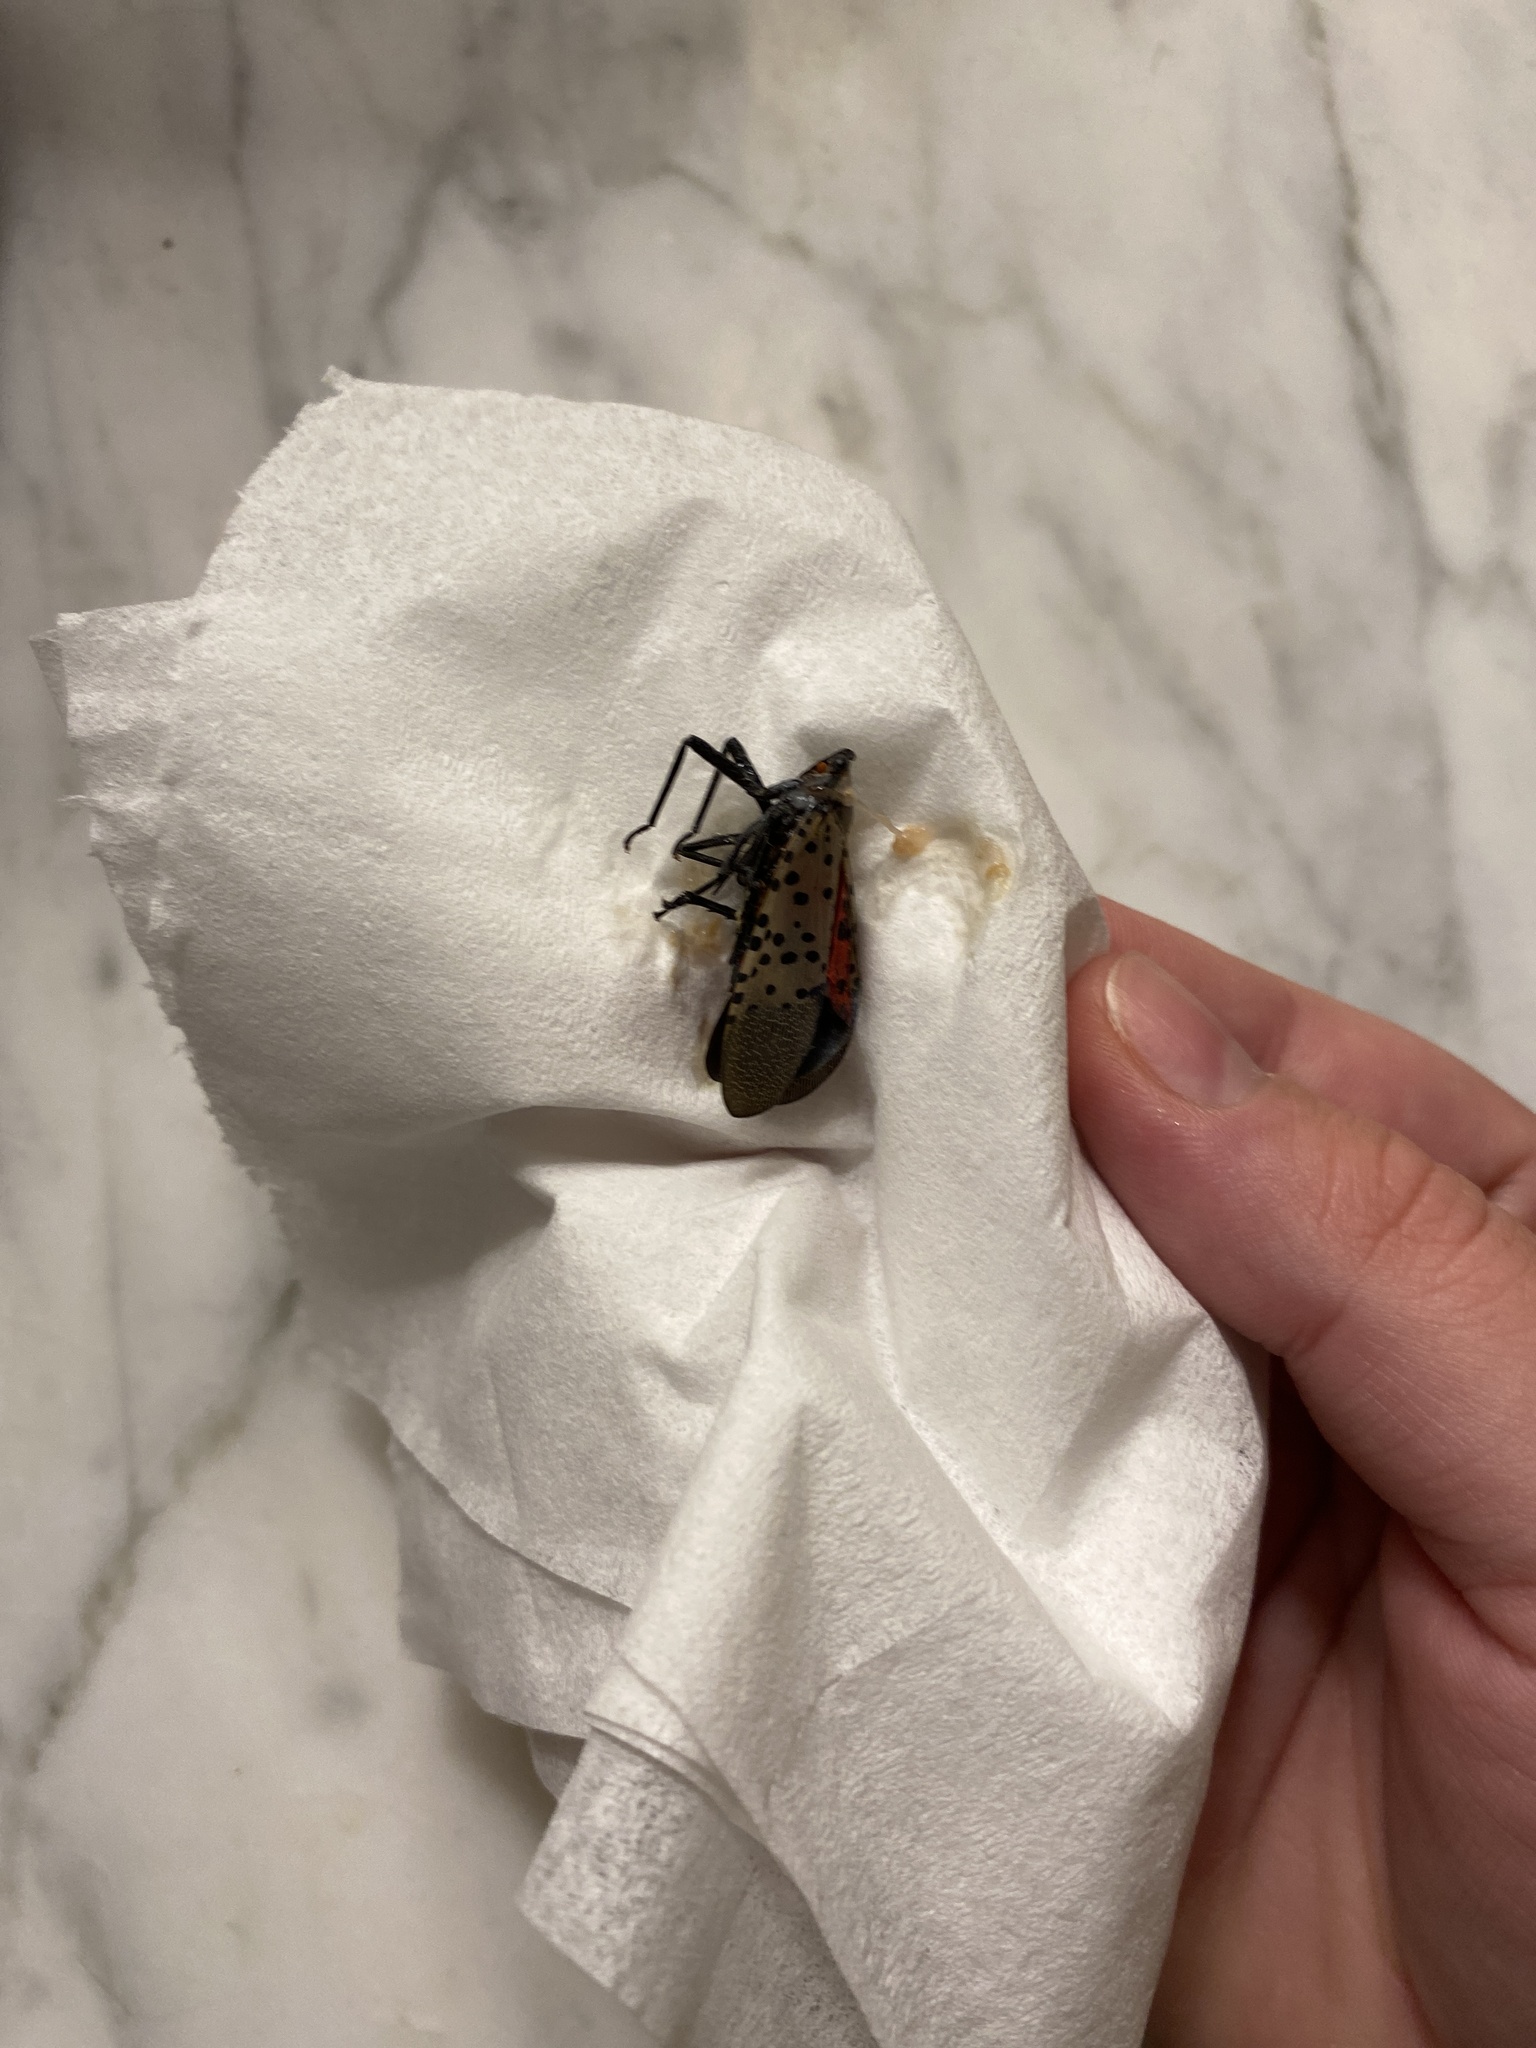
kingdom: Animalia
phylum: Arthropoda
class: Insecta
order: Hemiptera
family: Fulgoridae
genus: Lycorma
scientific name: Lycorma delicatula
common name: Spotted lanternfly
